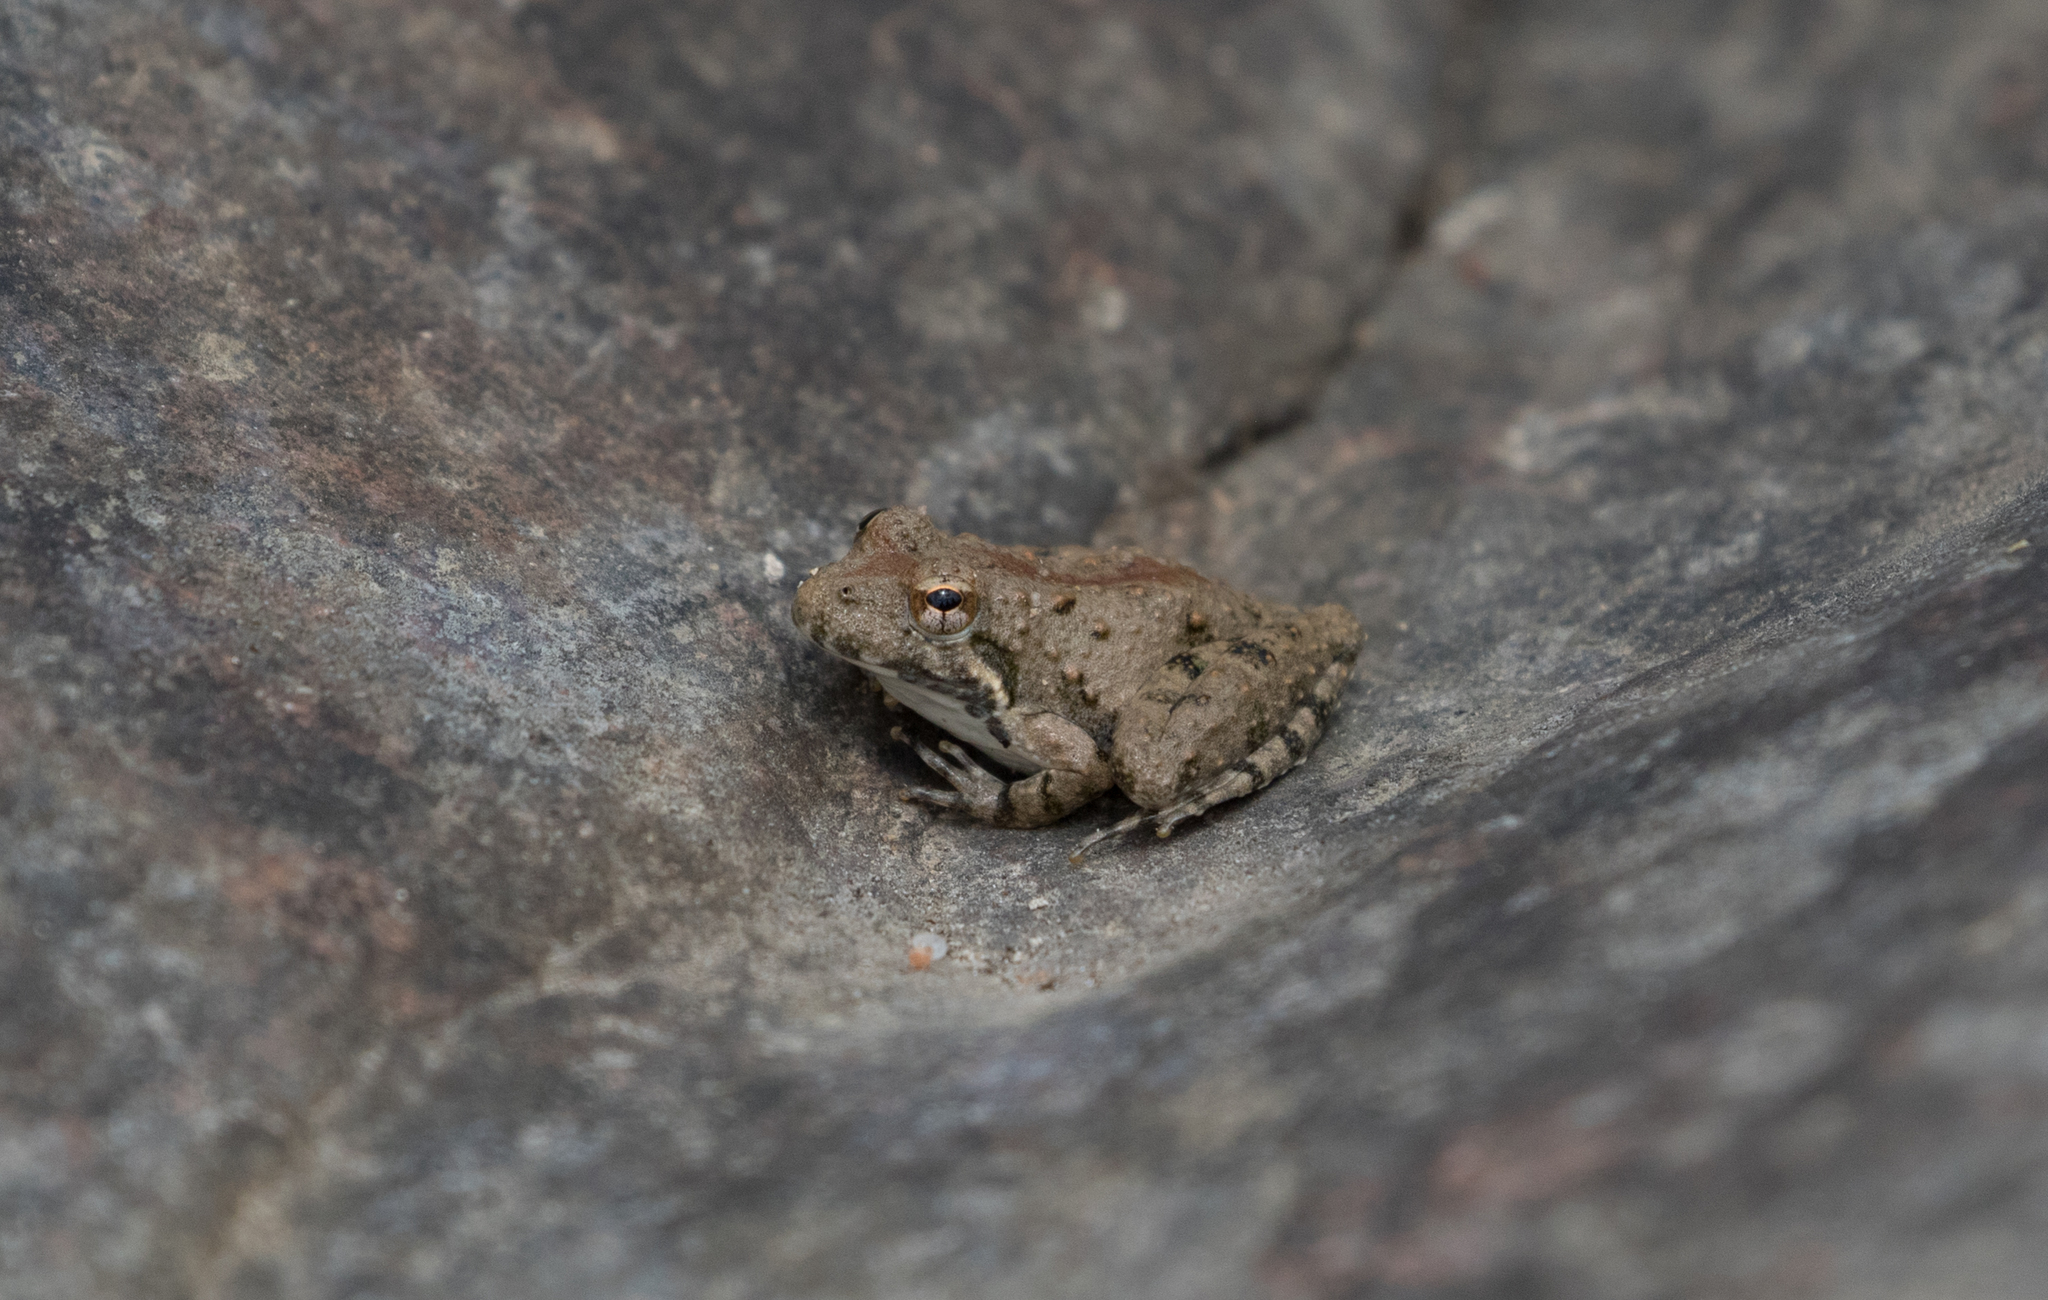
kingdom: Animalia
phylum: Chordata
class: Amphibia
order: Anura
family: Hylidae
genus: Acris
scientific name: Acris blanchardi
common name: Blanchard's cricket frog
